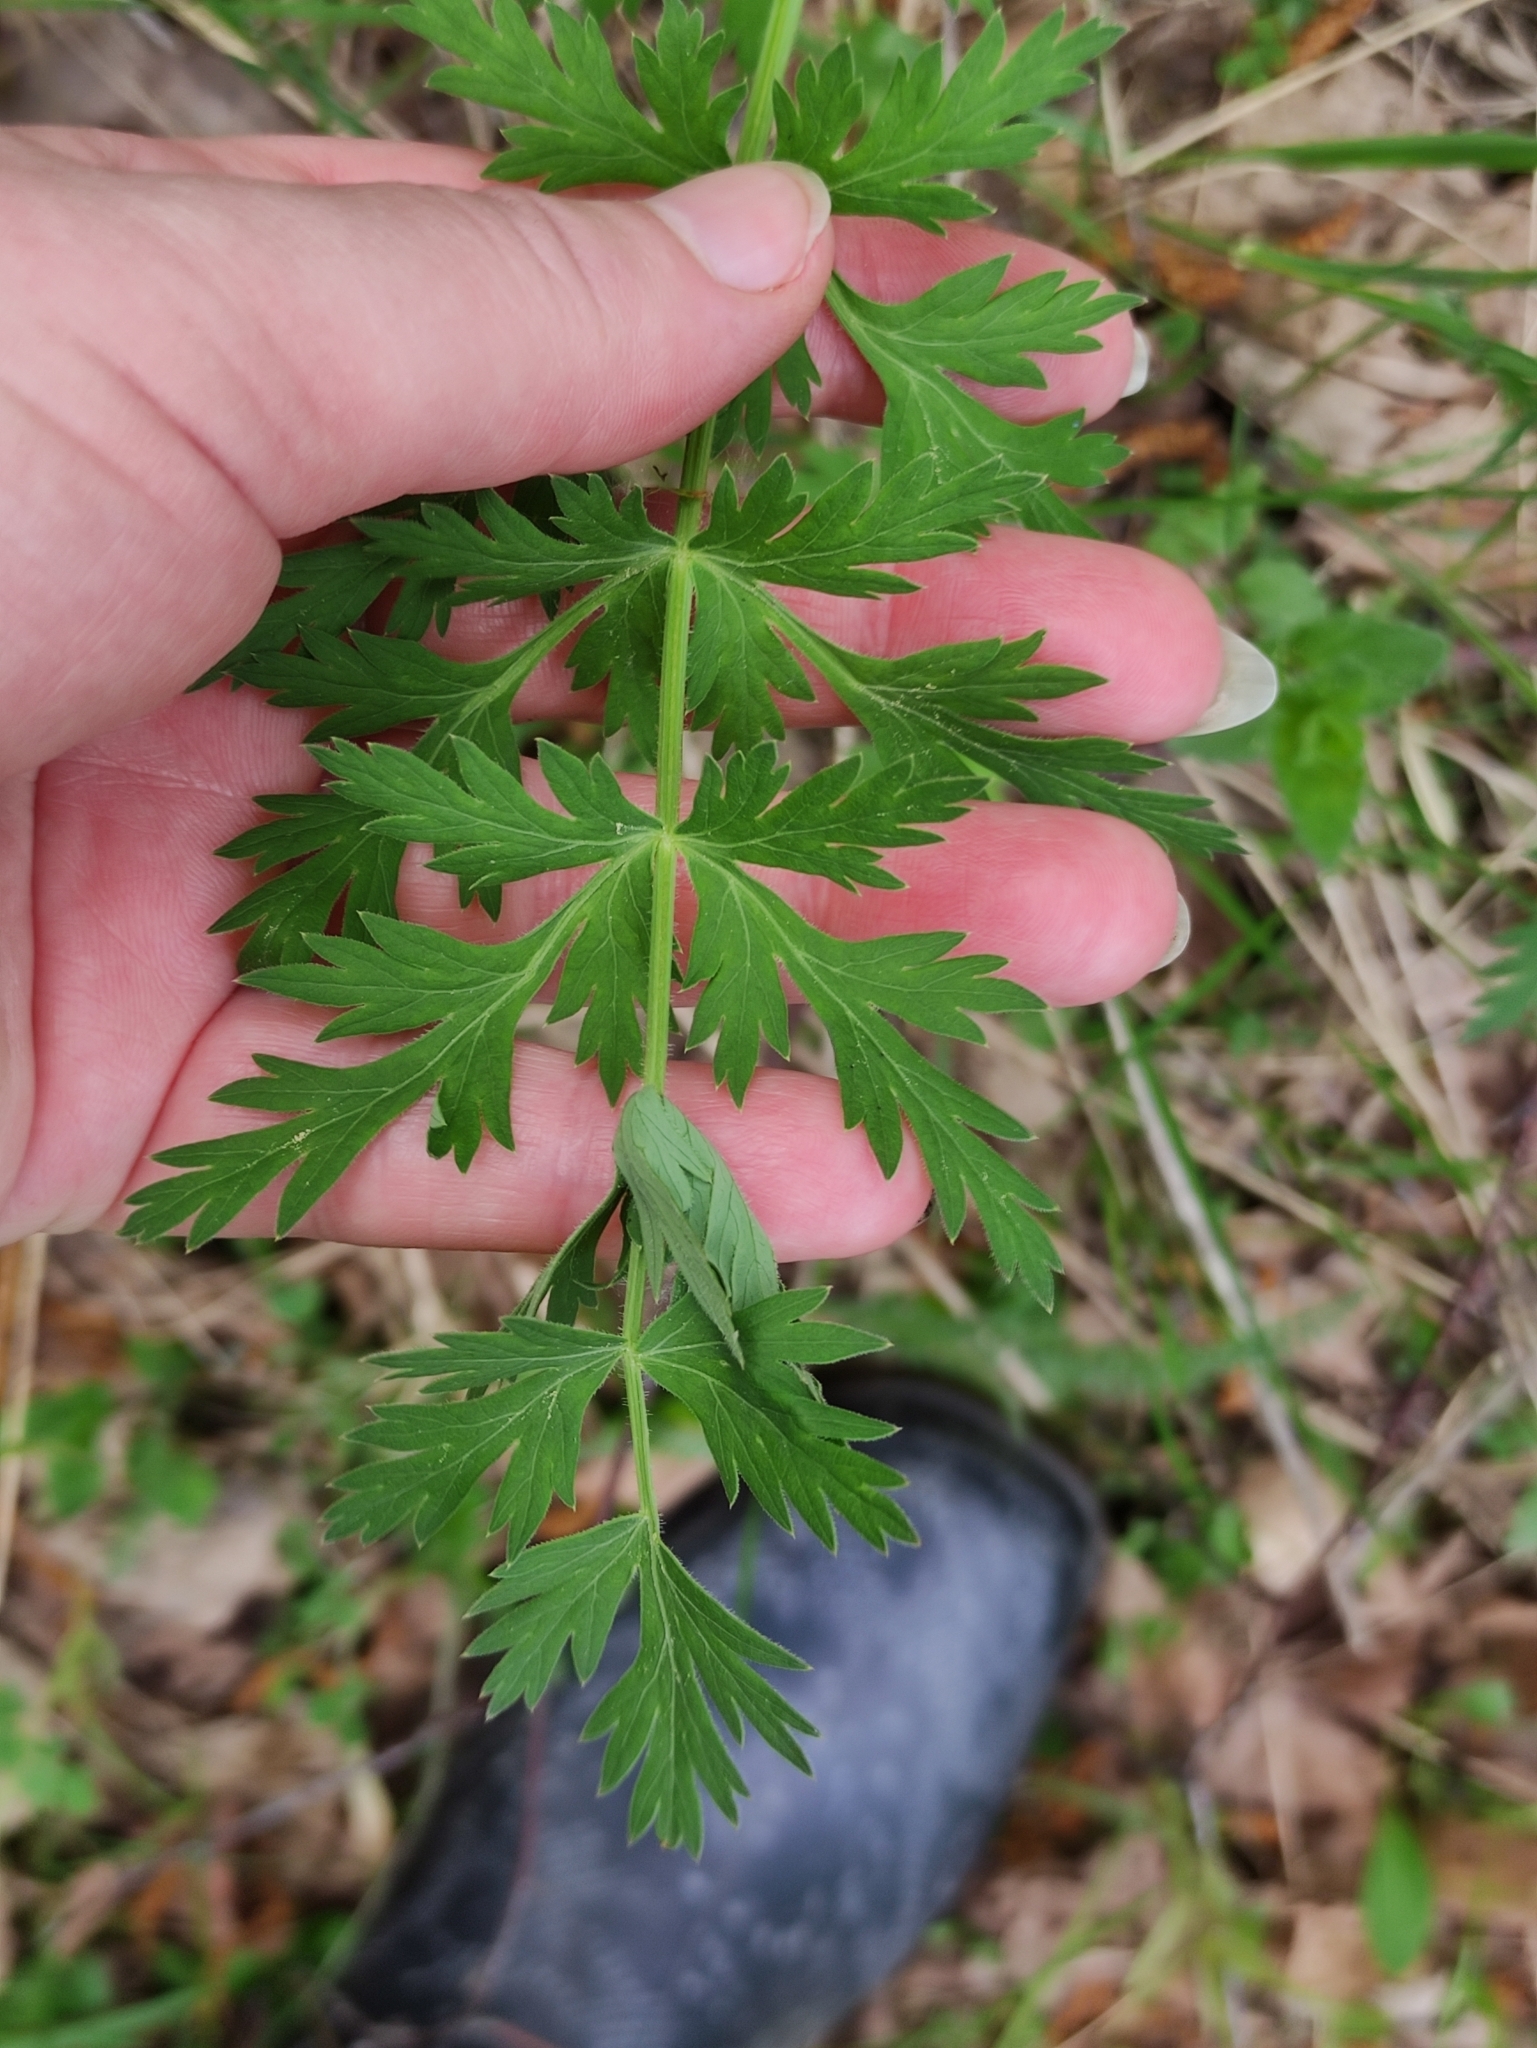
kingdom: Plantae
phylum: Tracheophyta
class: Magnoliopsida
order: Apiales
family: Apiaceae
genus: Seseli
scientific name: Seseli libanotis
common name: Mooncarrot
